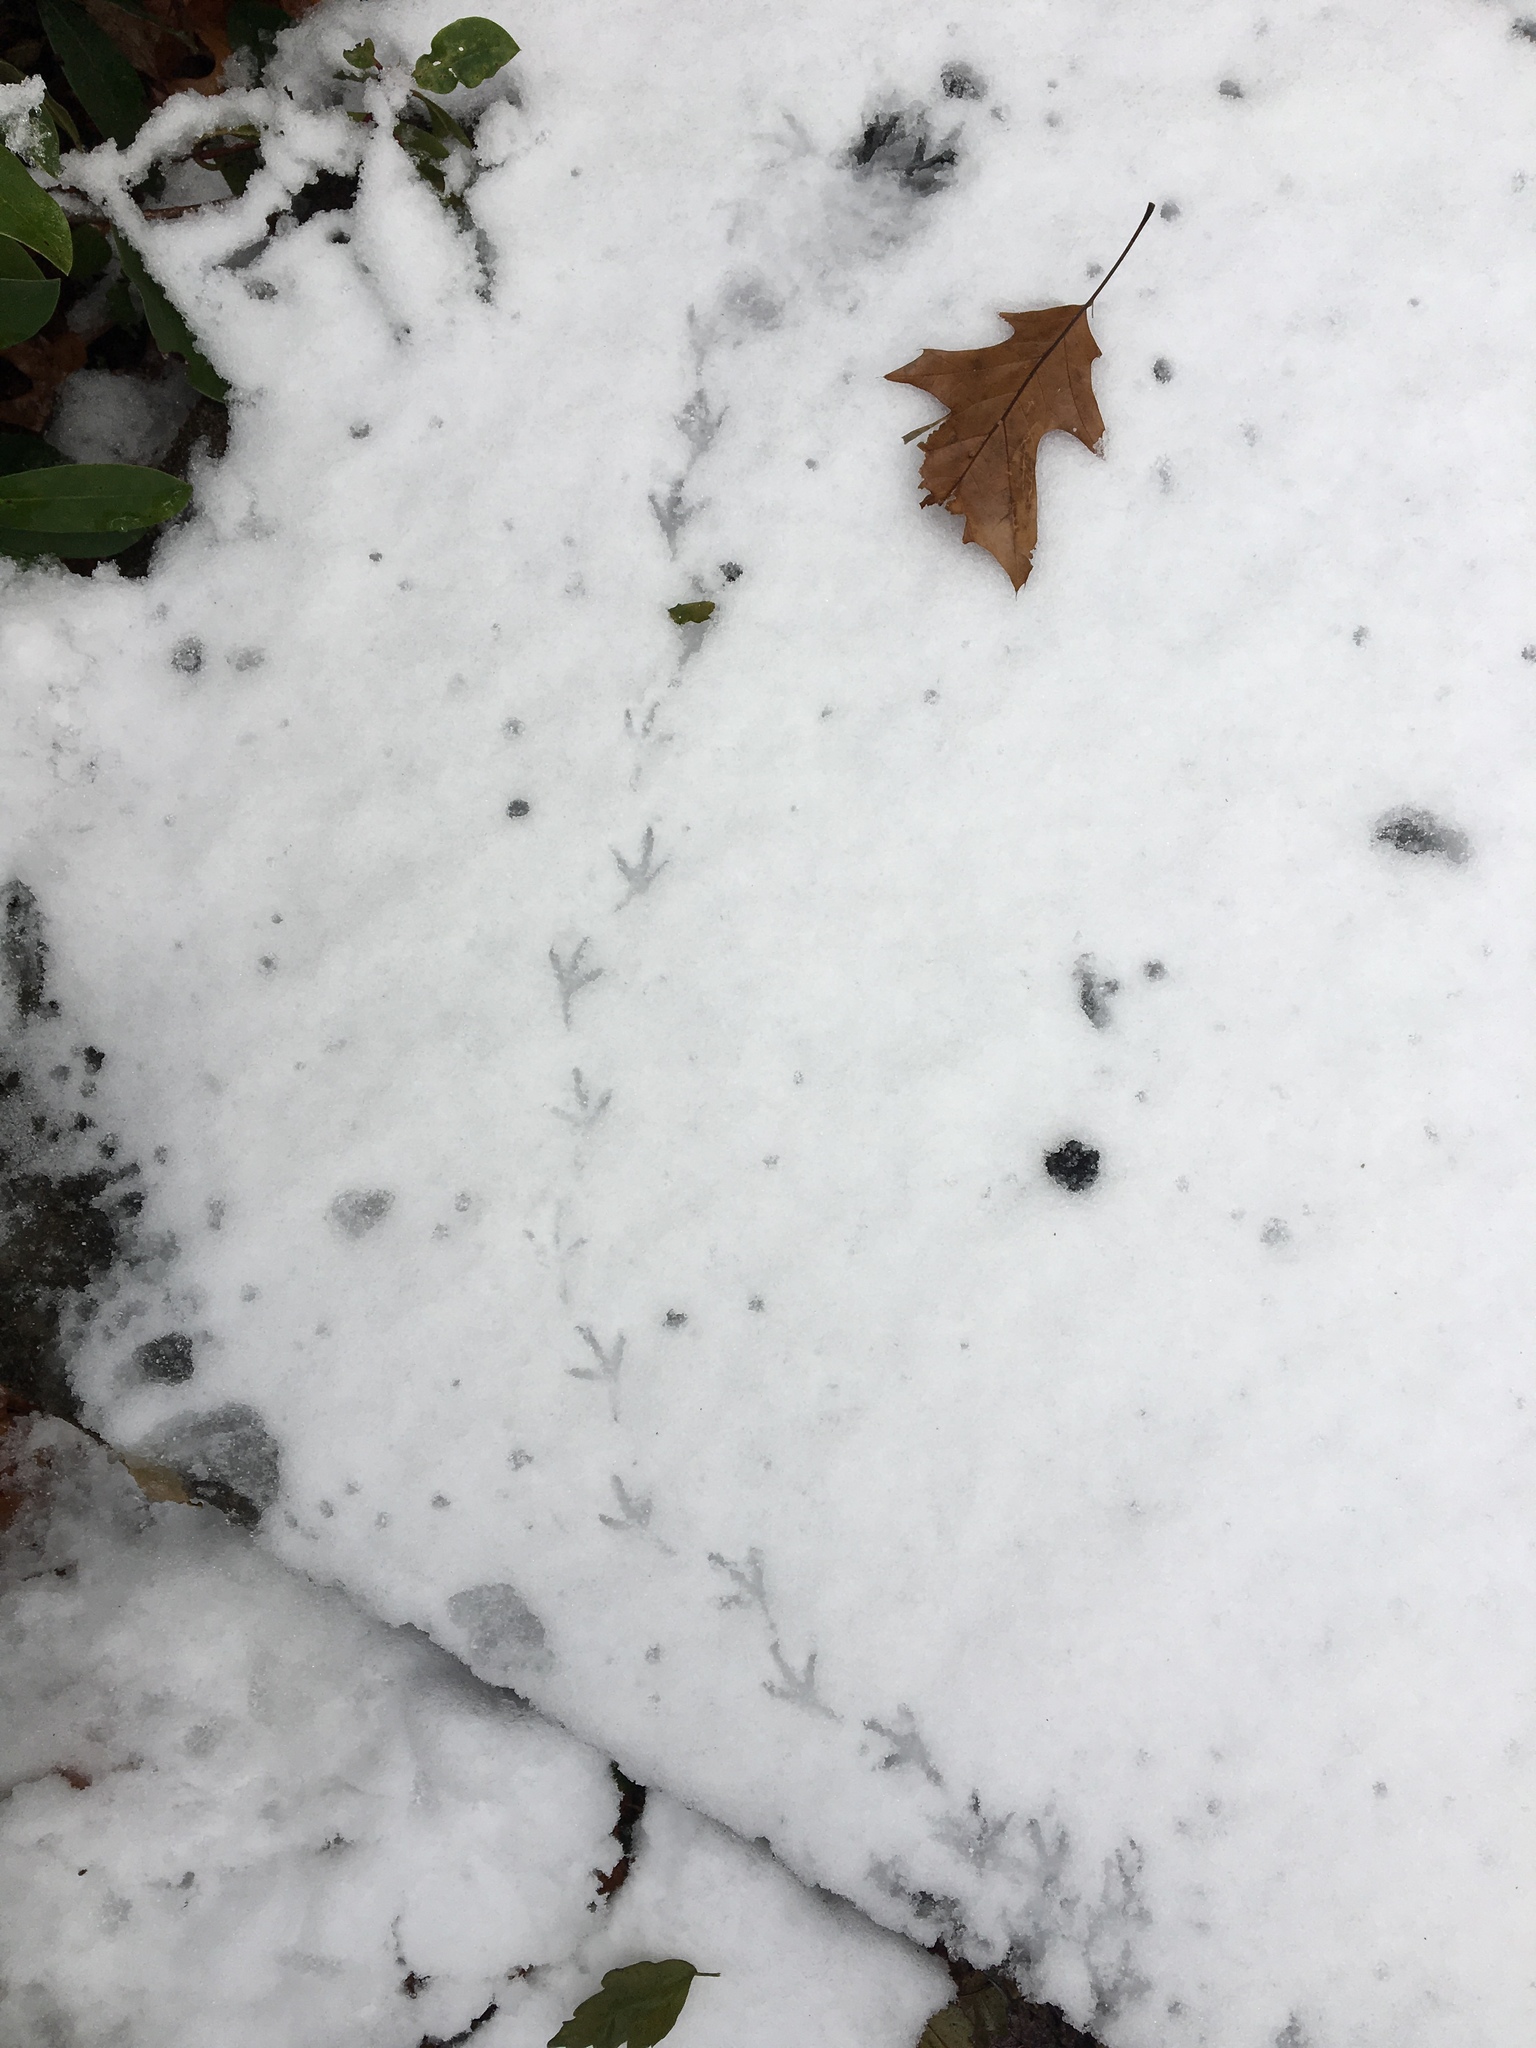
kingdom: Animalia
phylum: Chordata
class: Aves
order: Columbiformes
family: Columbidae
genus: Zenaida
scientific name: Zenaida macroura
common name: Mourning dove
